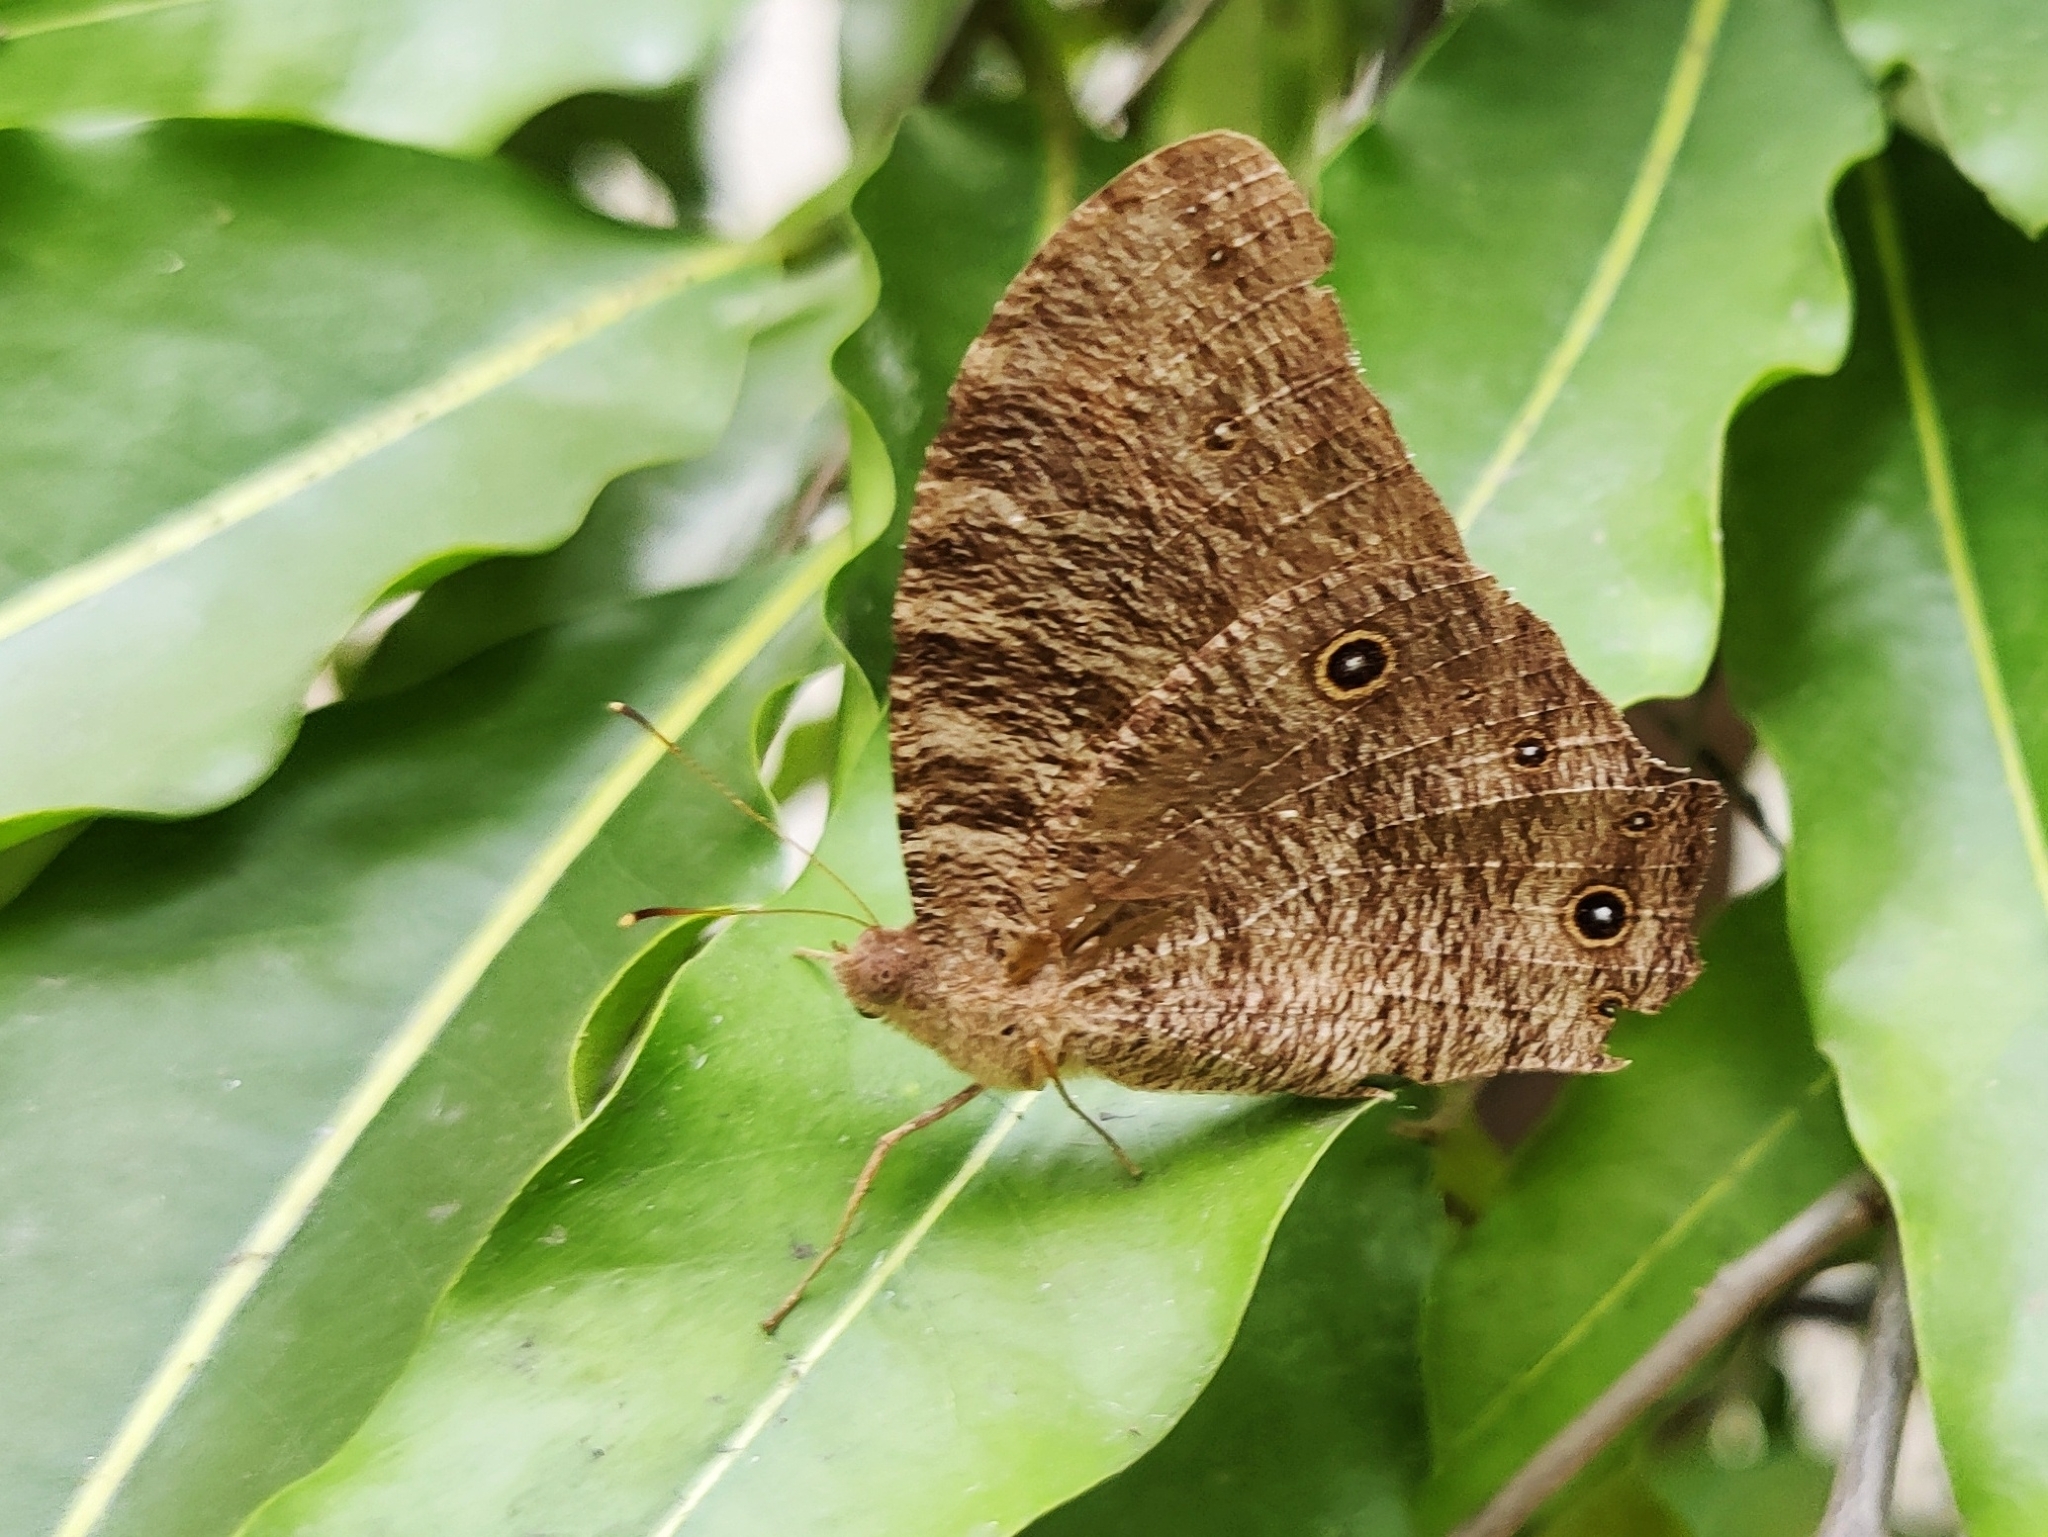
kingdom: Animalia
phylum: Arthropoda
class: Insecta
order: Lepidoptera
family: Nymphalidae
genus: Melanitis
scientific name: Melanitis leda
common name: Twilight brown
